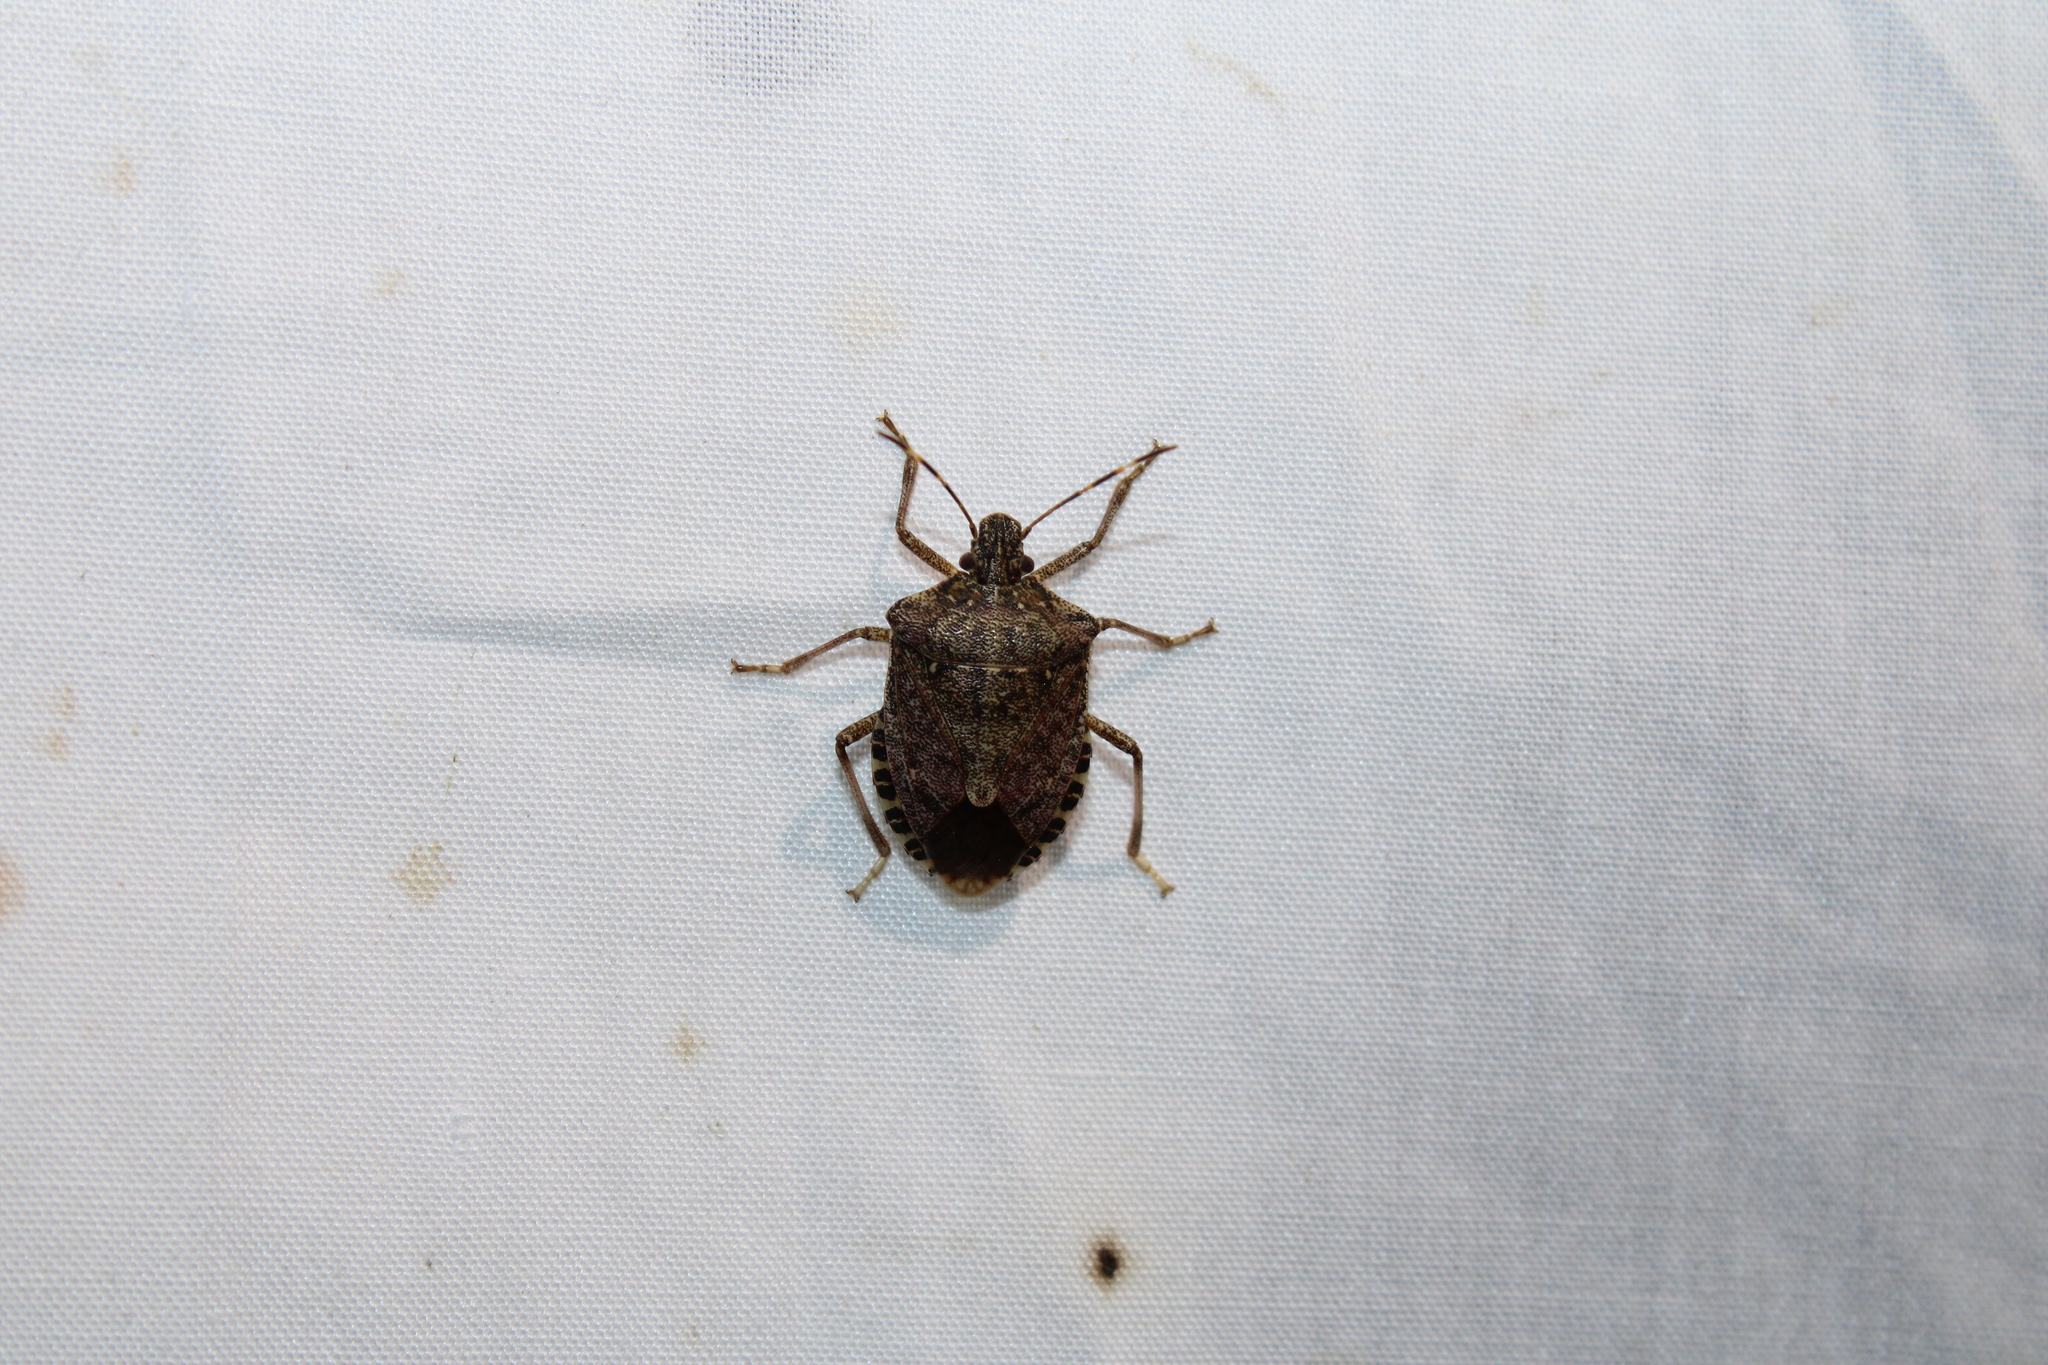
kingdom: Animalia
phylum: Arthropoda
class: Insecta
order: Hemiptera
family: Pentatomidae
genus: Halyomorpha
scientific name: Halyomorpha halys
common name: Brown marmorated stink bug
